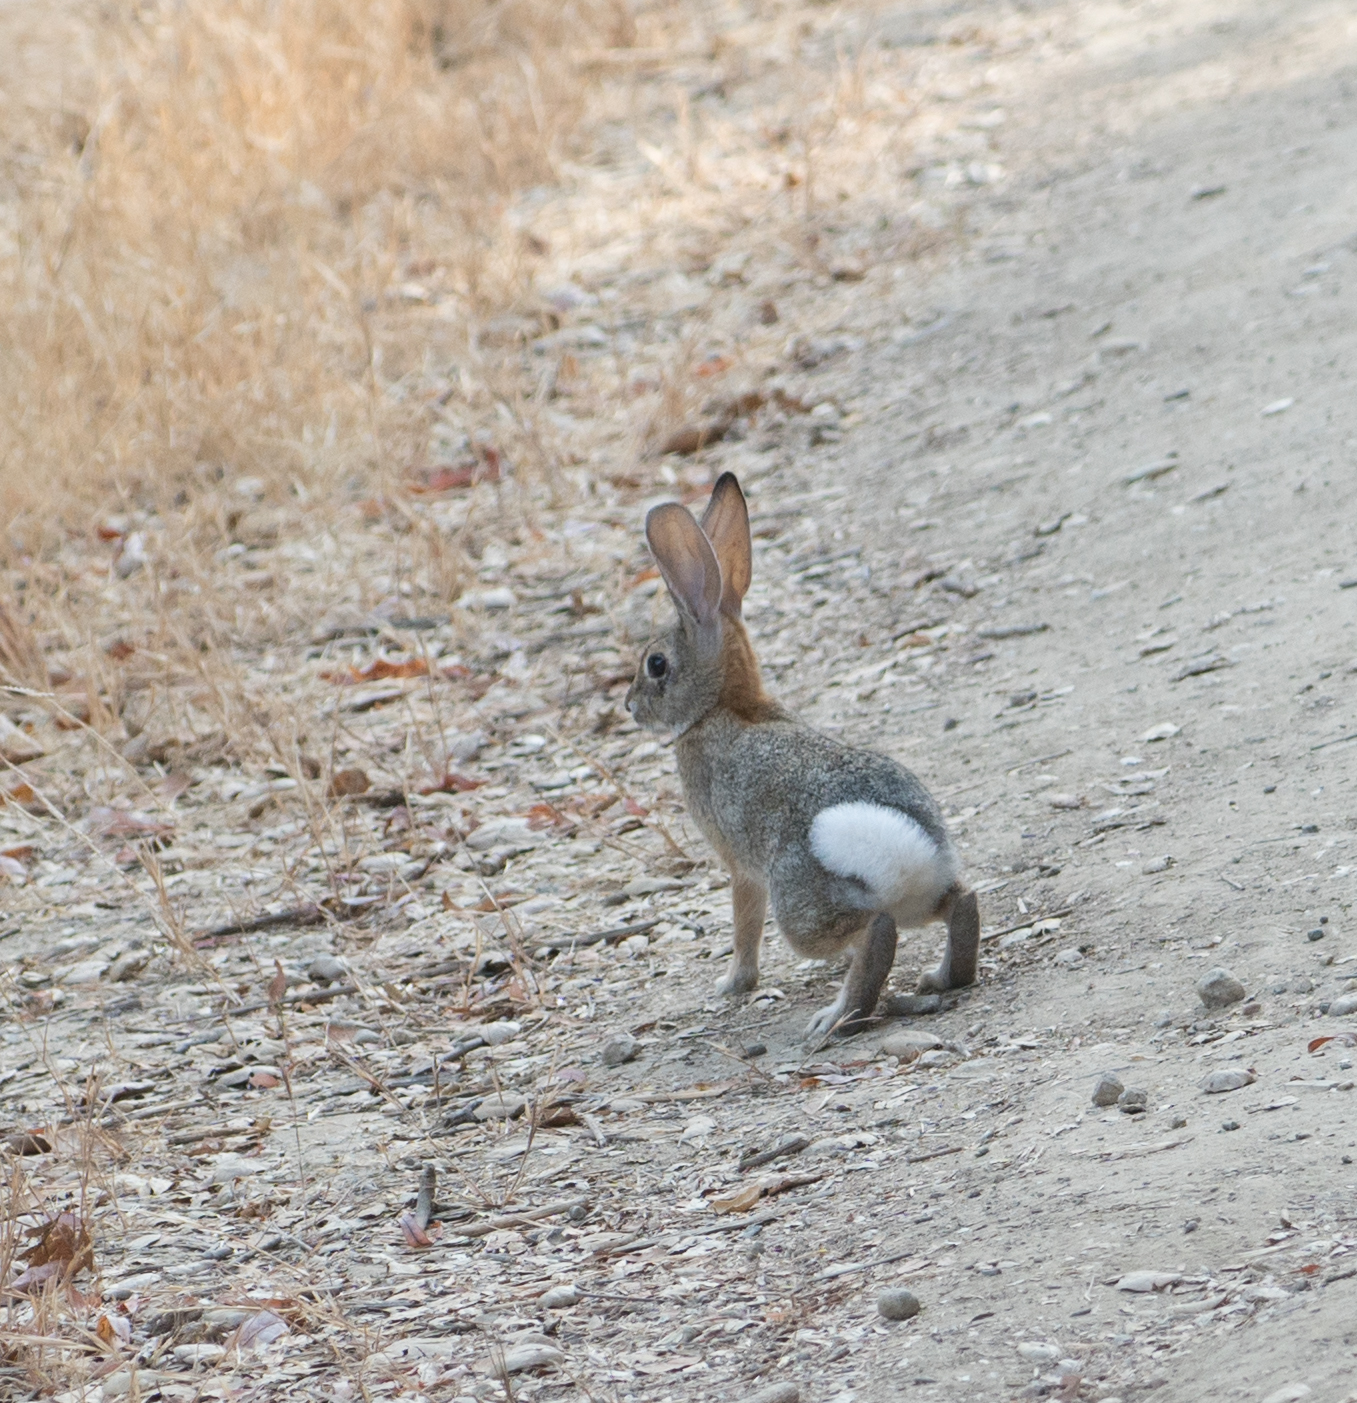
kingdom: Animalia
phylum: Chordata
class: Mammalia
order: Lagomorpha
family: Leporidae
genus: Sylvilagus
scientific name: Sylvilagus audubonii
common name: Desert cottontail
